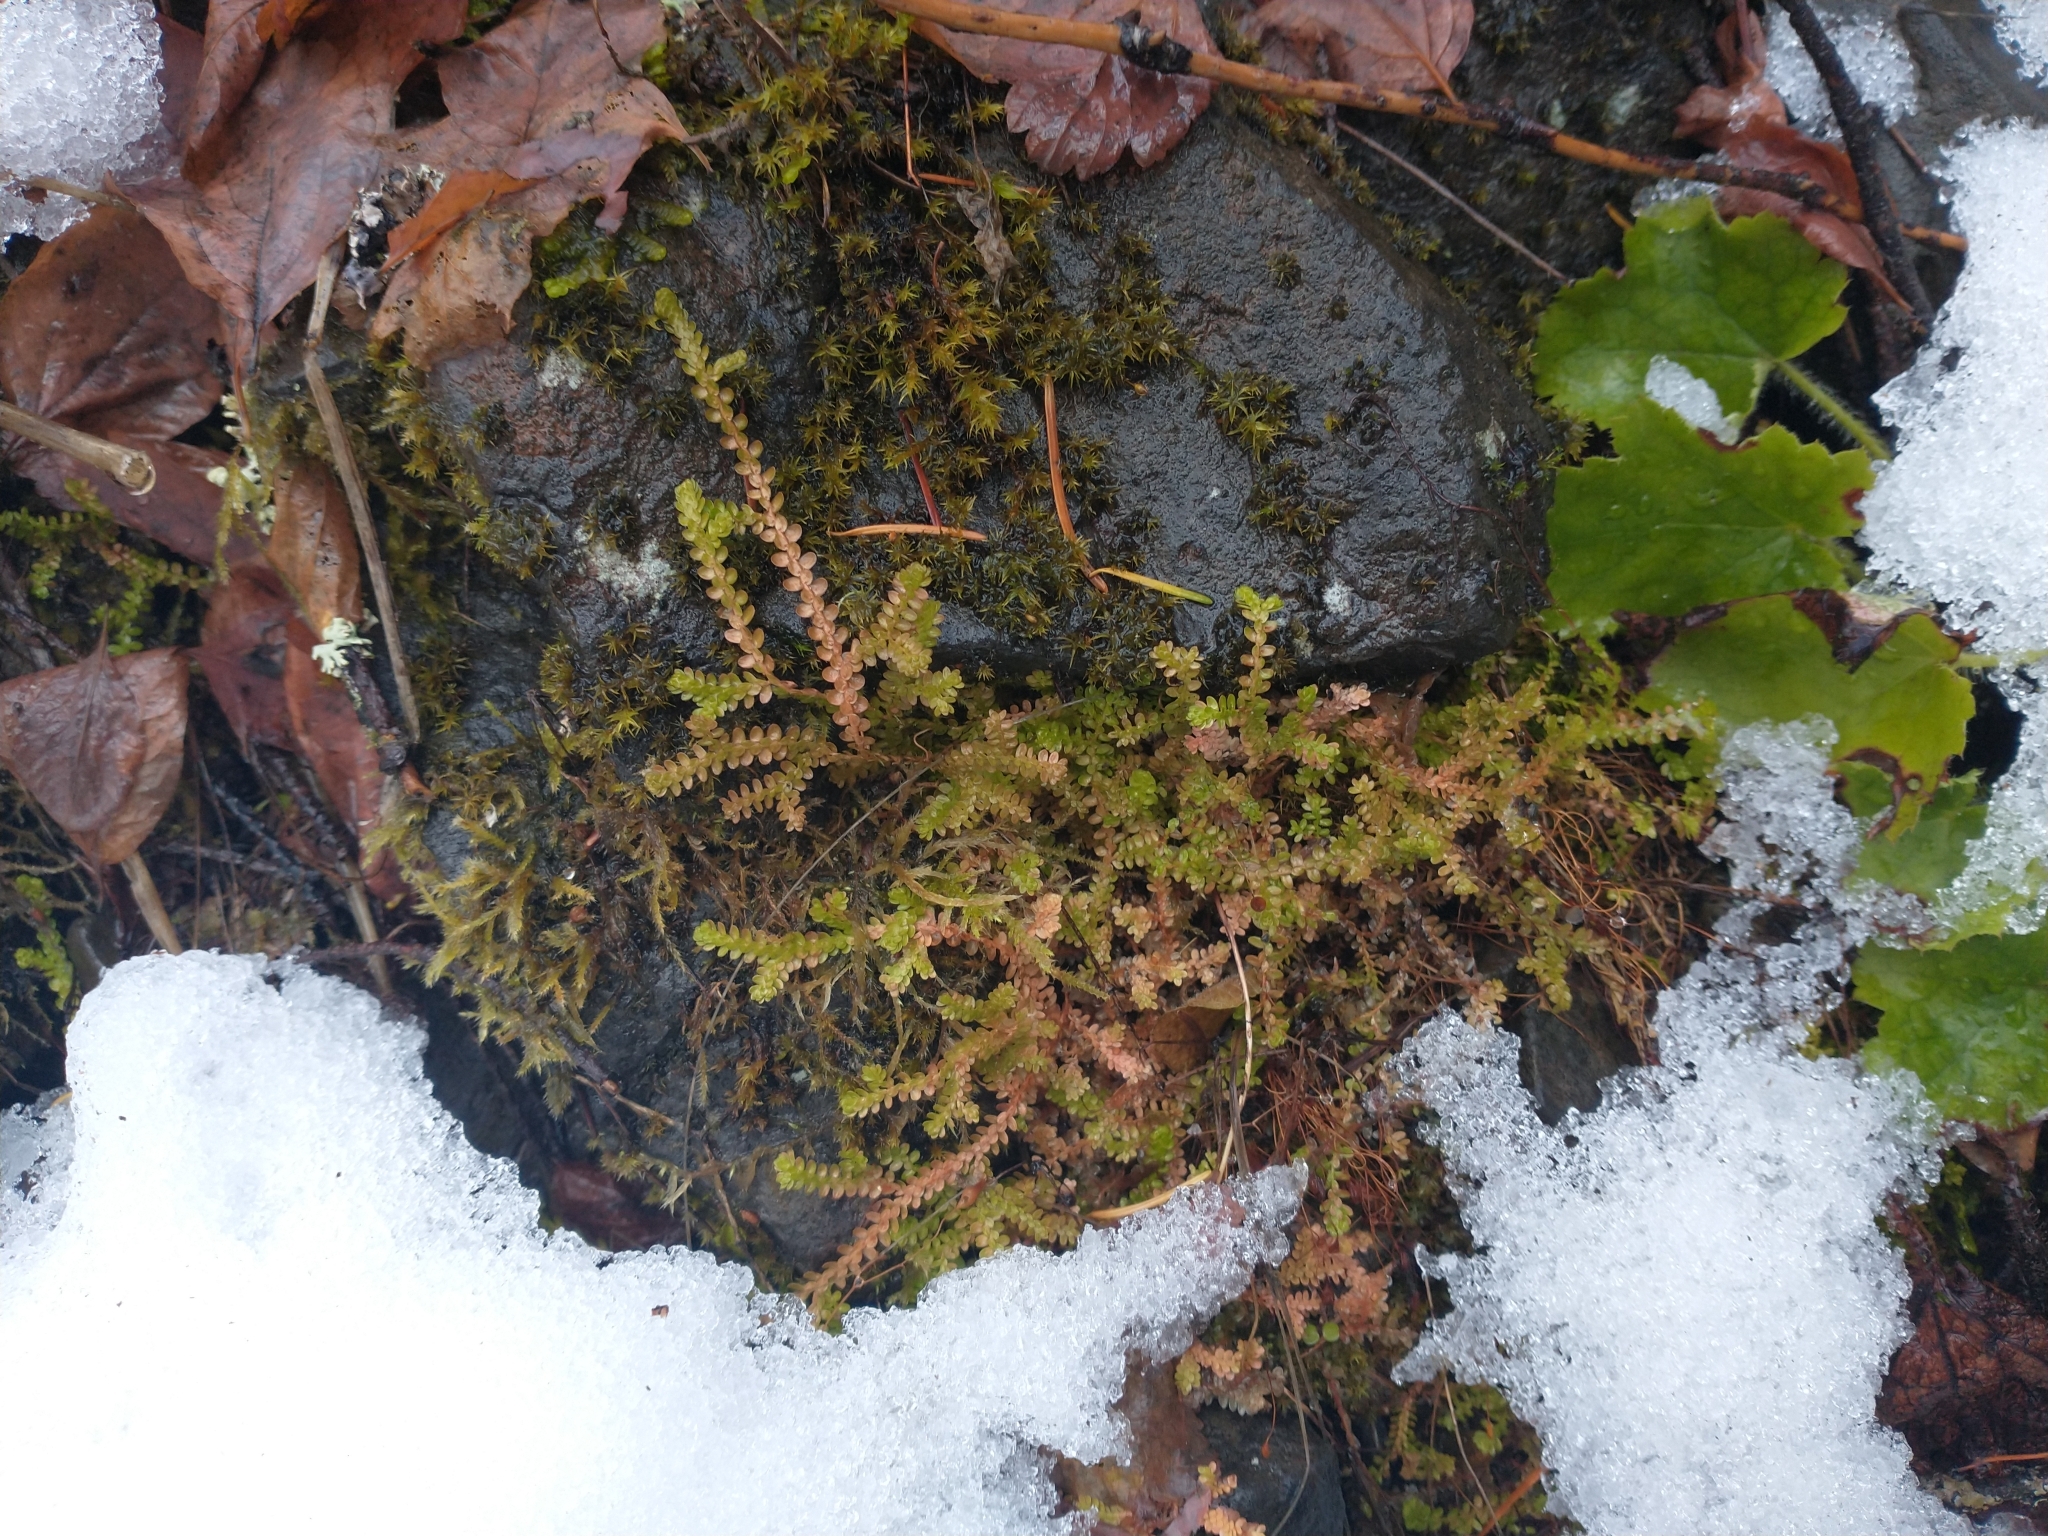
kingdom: Plantae
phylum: Tracheophyta
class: Lycopodiopsida
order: Selaginellales
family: Selaginellaceae
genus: Selaginella
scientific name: Selaginella douglasii
